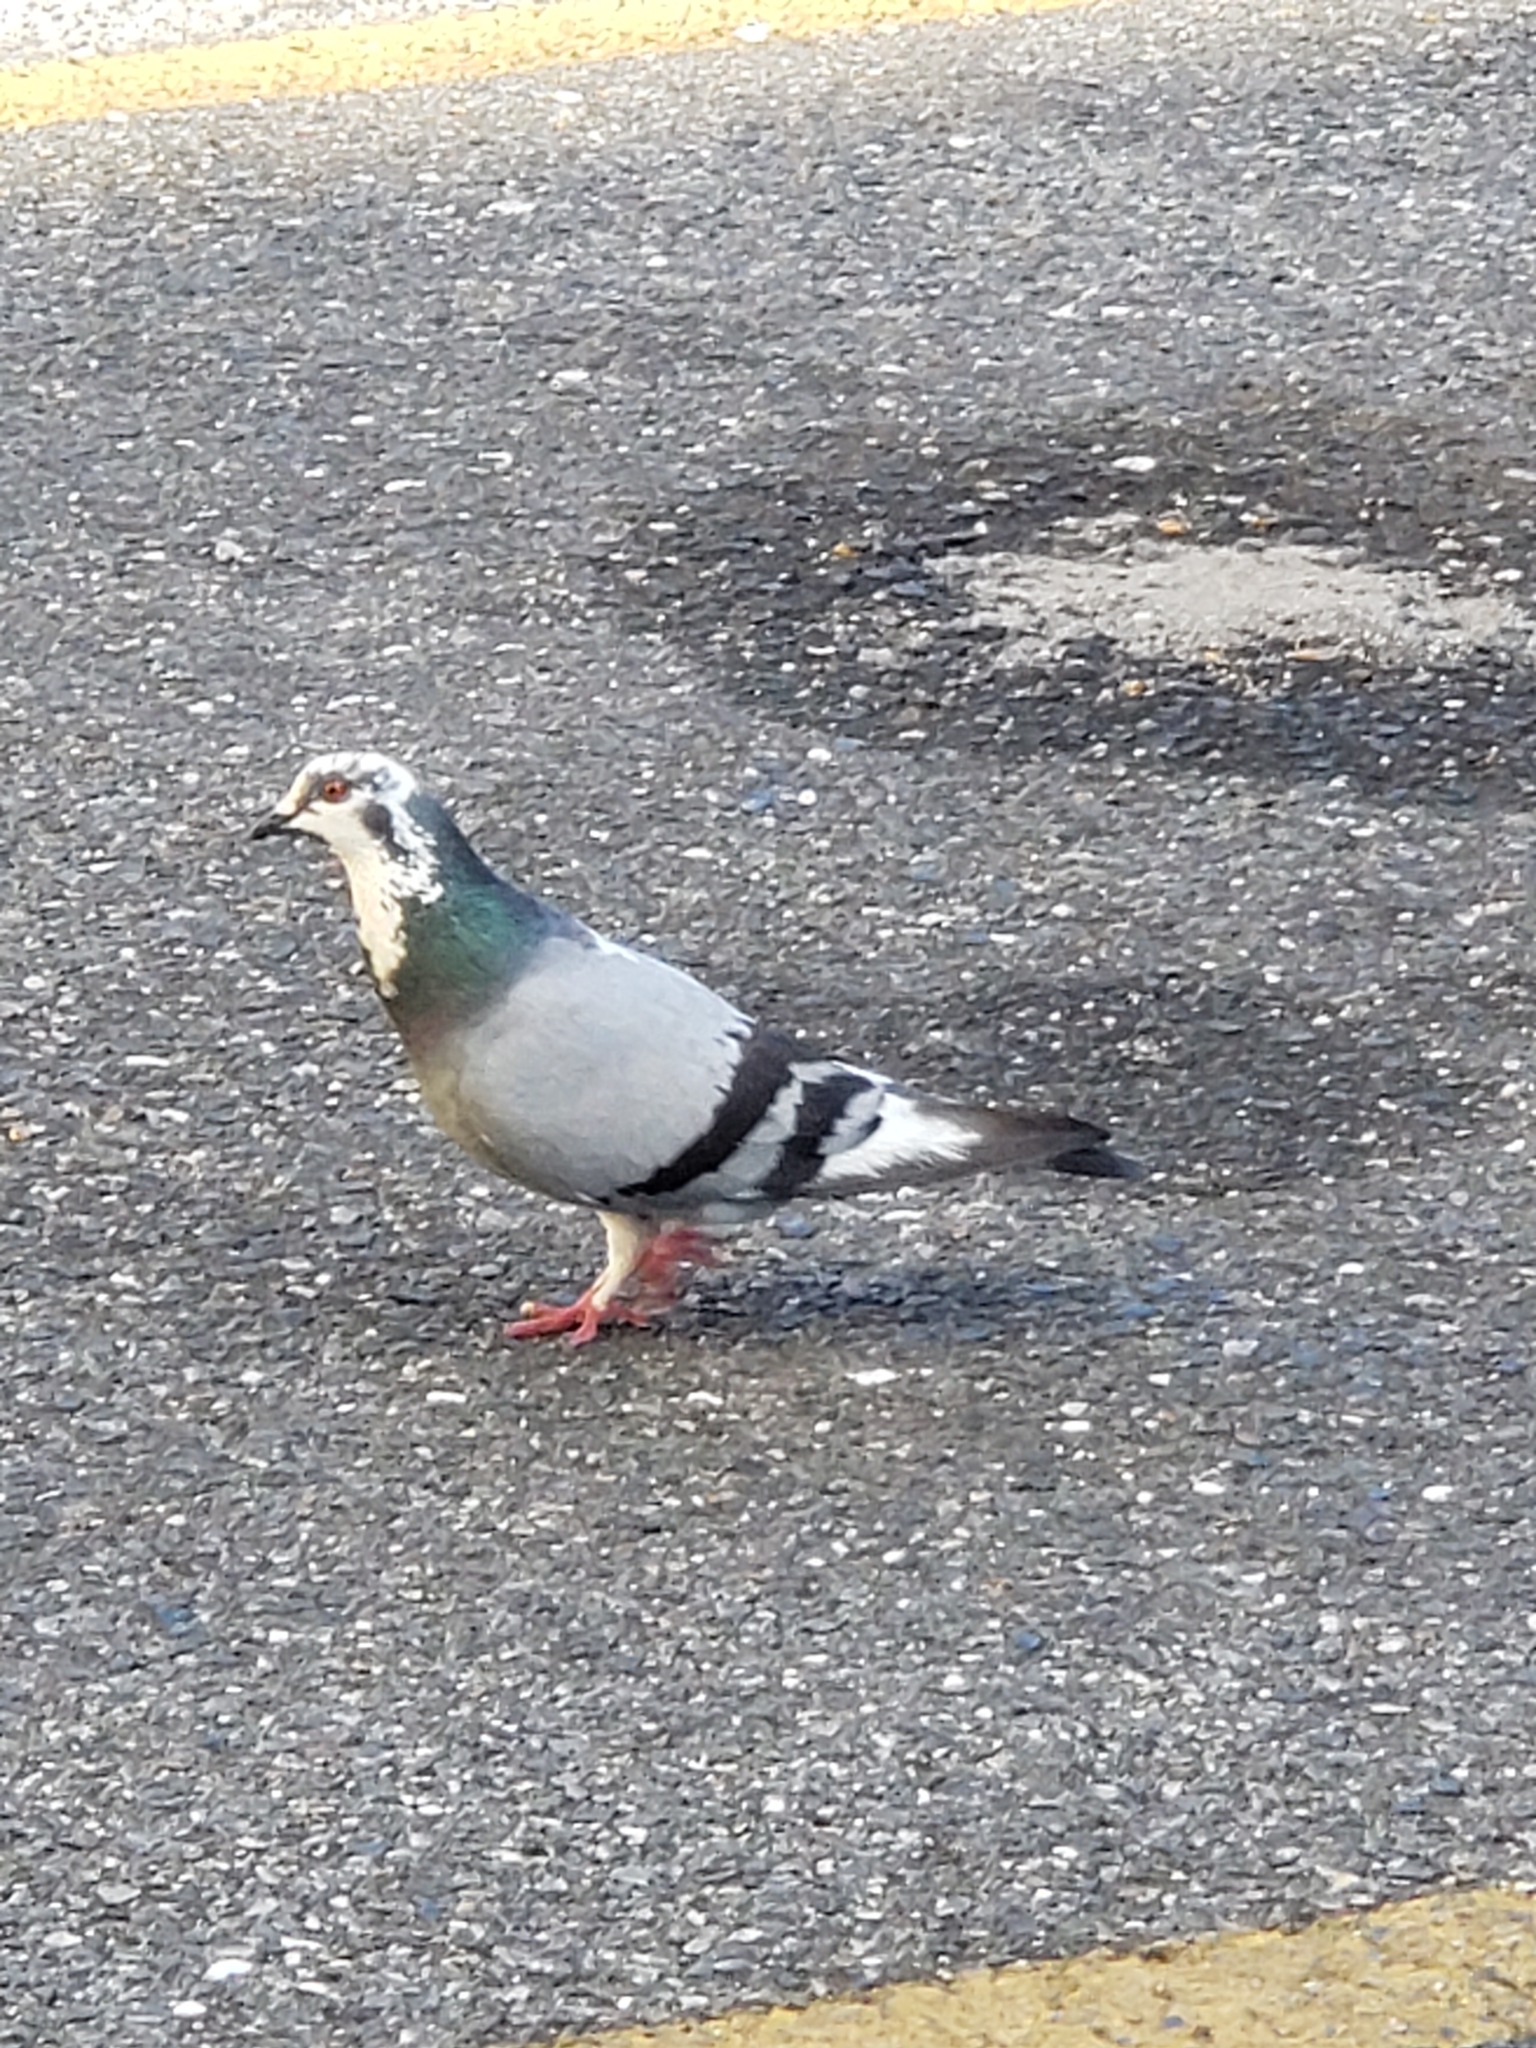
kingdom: Animalia
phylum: Chordata
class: Aves
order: Columbiformes
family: Columbidae
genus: Columba
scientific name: Columba livia
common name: Rock pigeon
